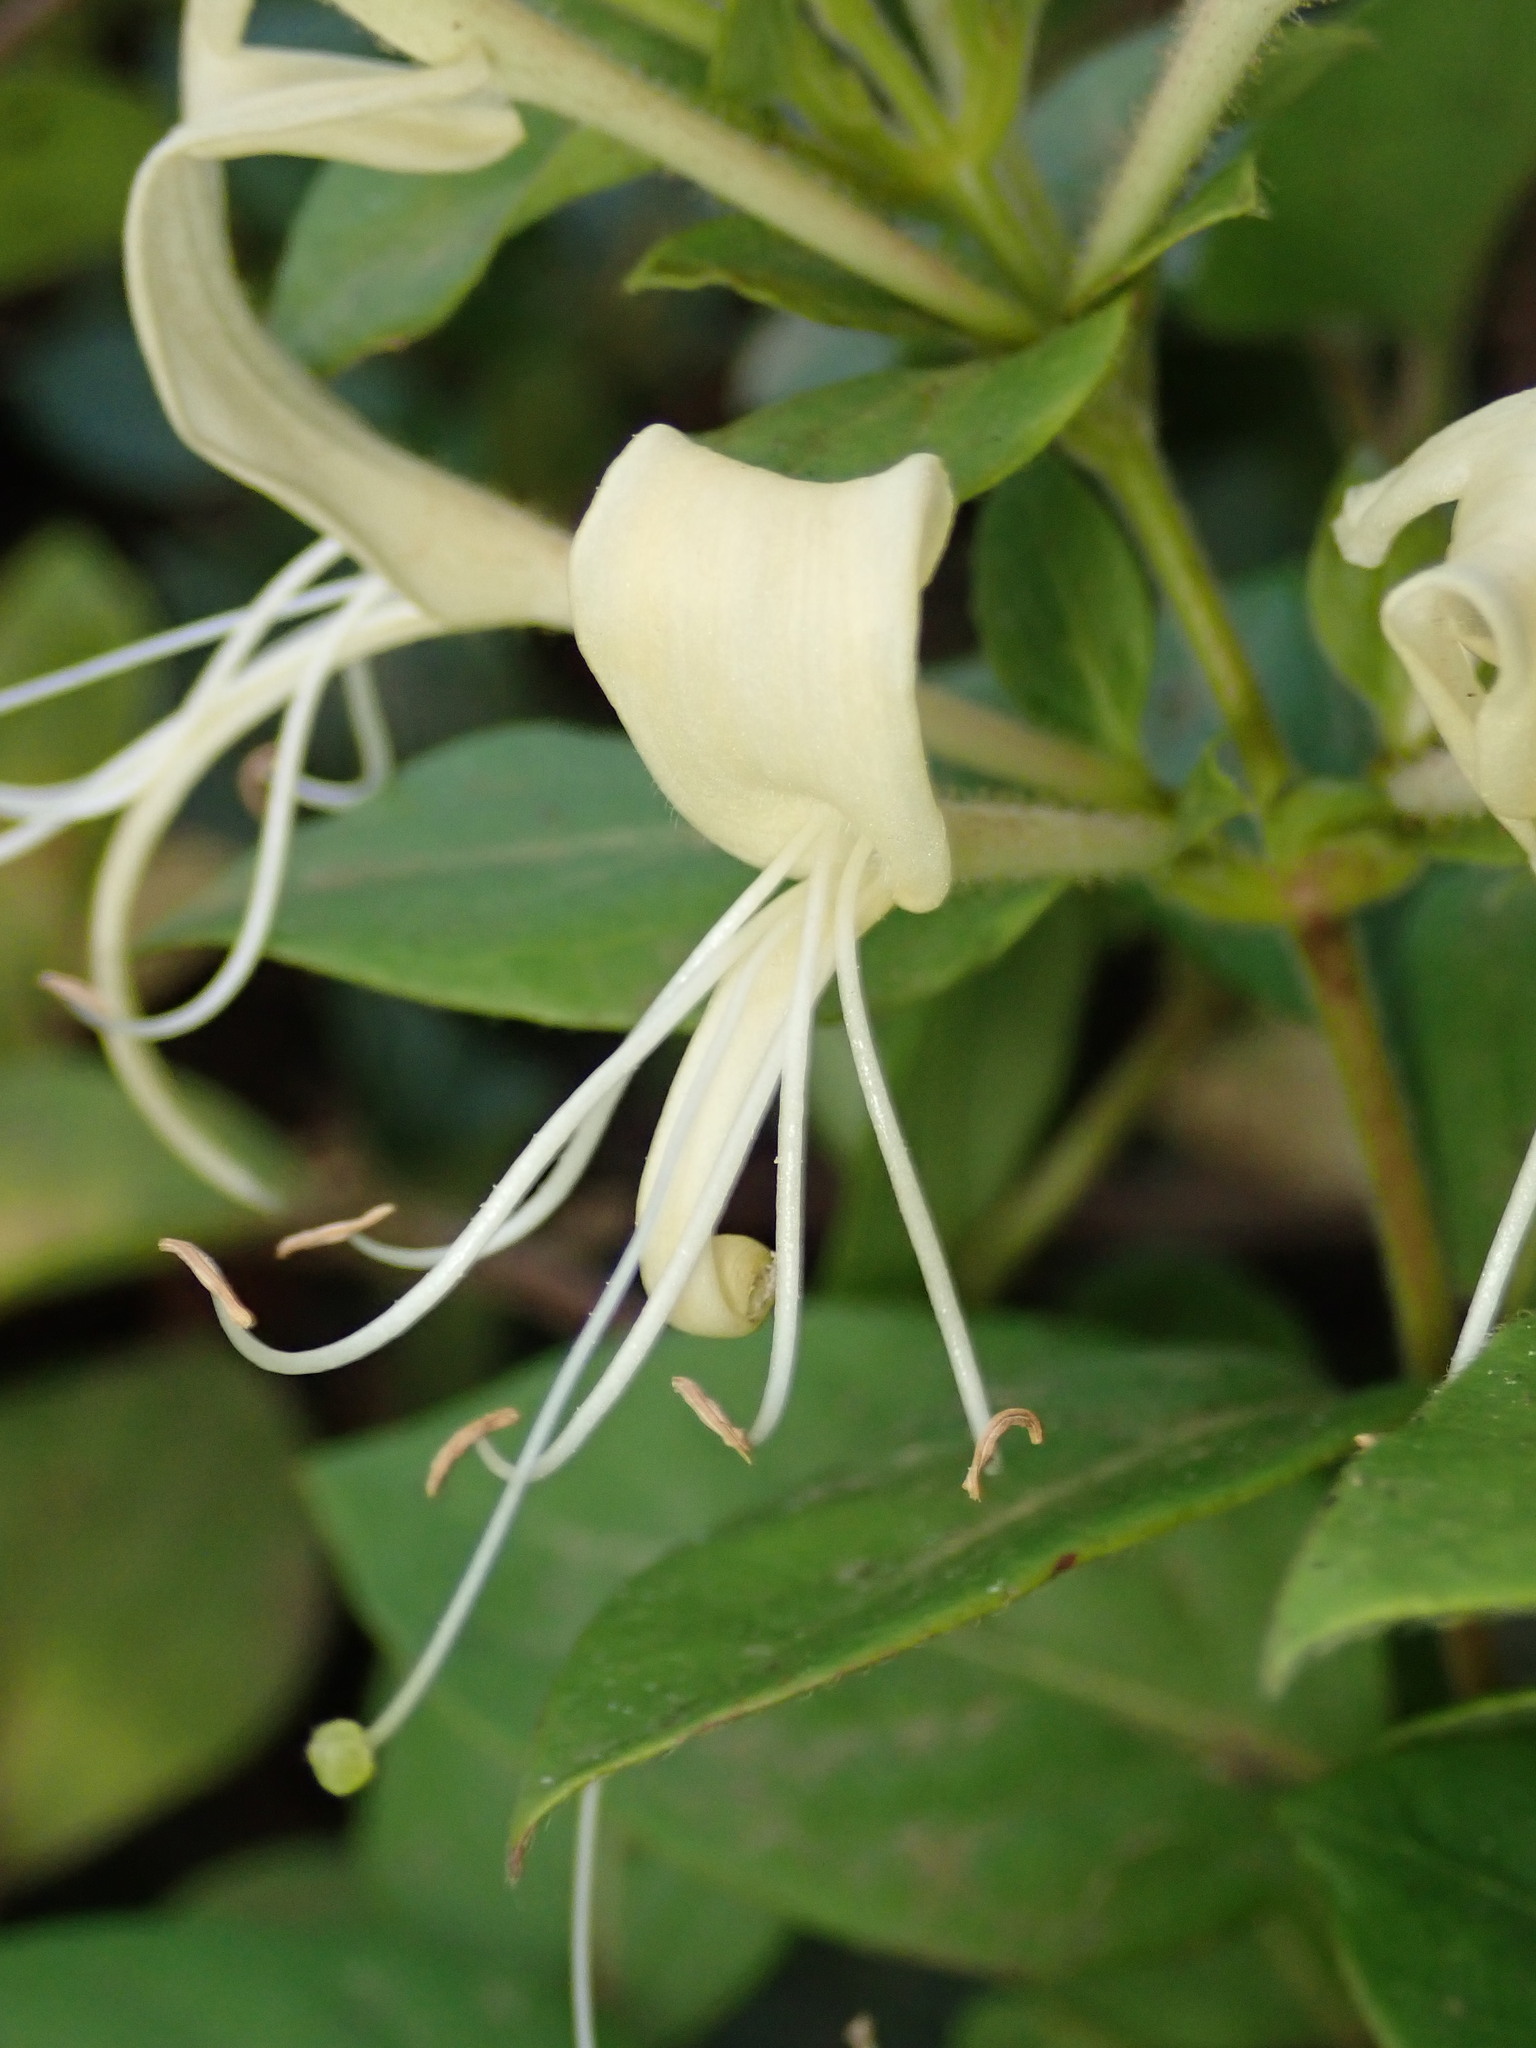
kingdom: Plantae
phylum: Tracheophyta
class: Magnoliopsida
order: Dipsacales
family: Caprifoliaceae
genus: Lonicera
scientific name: Lonicera japonica
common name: Japanese honeysuckle
